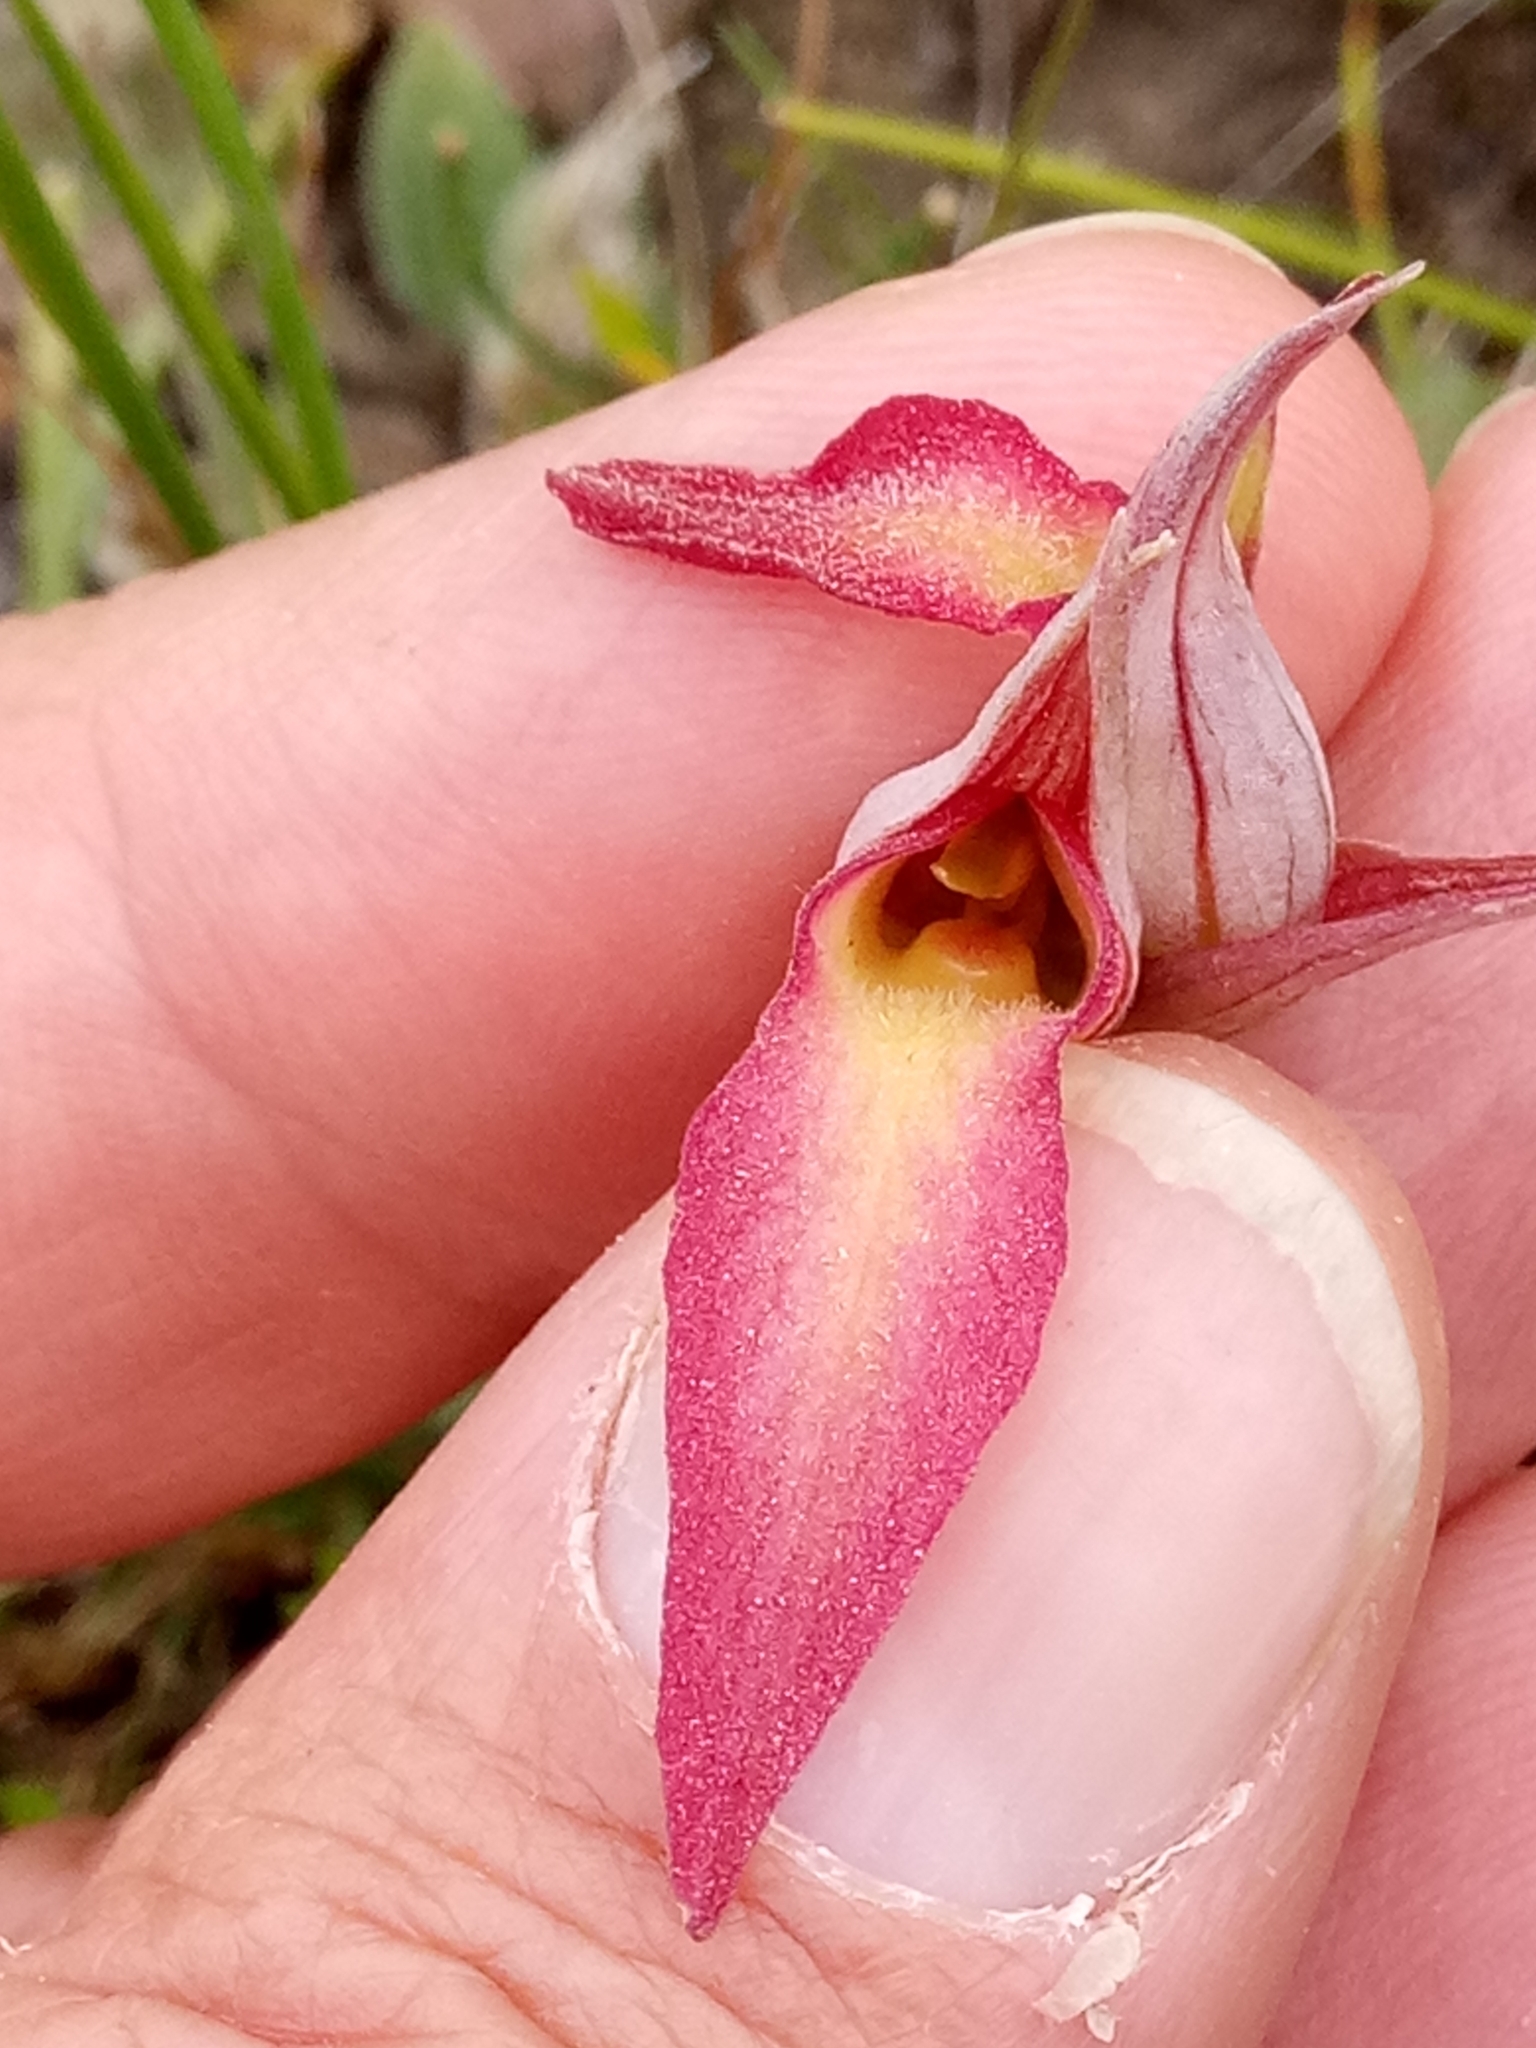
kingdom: Plantae
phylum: Tracheophyta
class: Liliopsida
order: Asparagales
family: Orchidaceae
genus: Serapias
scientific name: Serapias lingua
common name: Tongue-orchid
